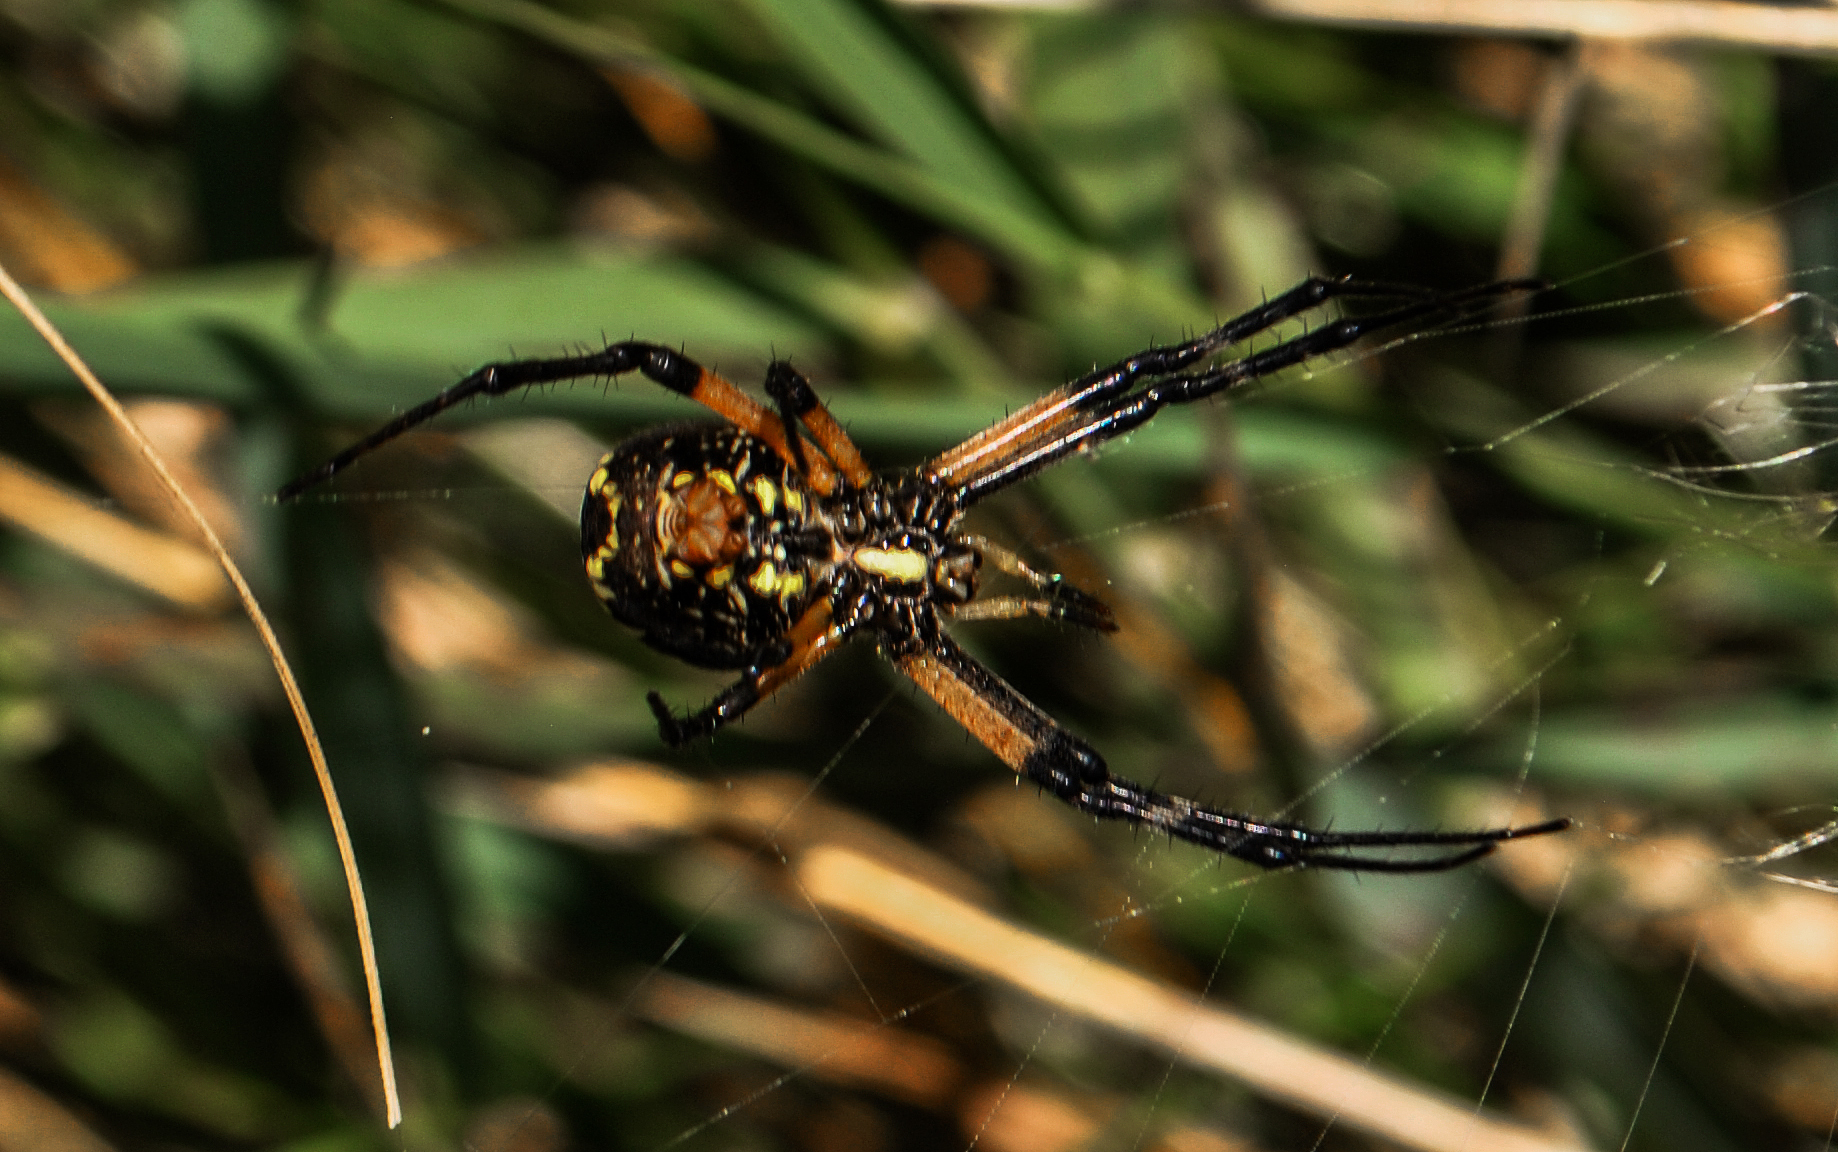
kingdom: Animalia
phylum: Arthropoda
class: Arachnida
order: Araneae
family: Araneidae
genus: Argiope
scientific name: Argiope aurantia
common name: Orb weavers
